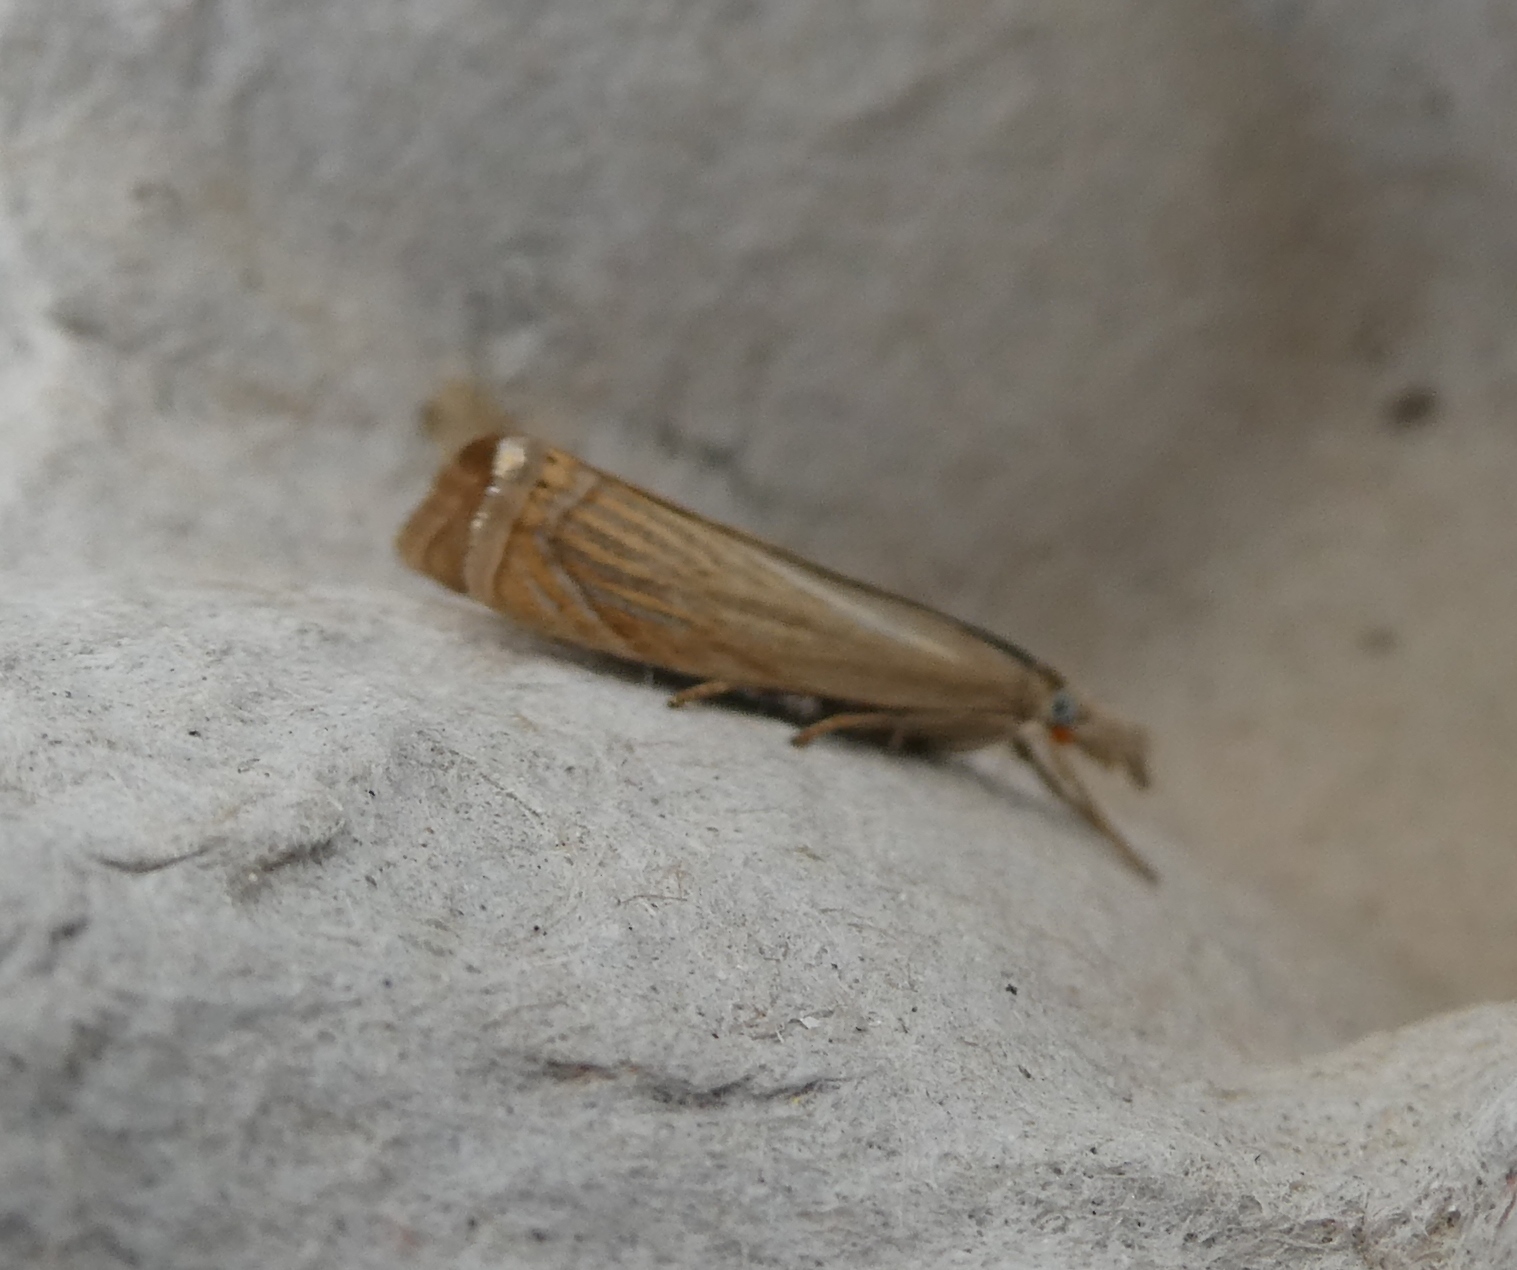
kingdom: Animalia
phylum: Arthropoda
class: Insecta
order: Lepidoptera
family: Crambidae
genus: Chrysoteuchia
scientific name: Chrysoteuchia culmella
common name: Garden grass-veneer
